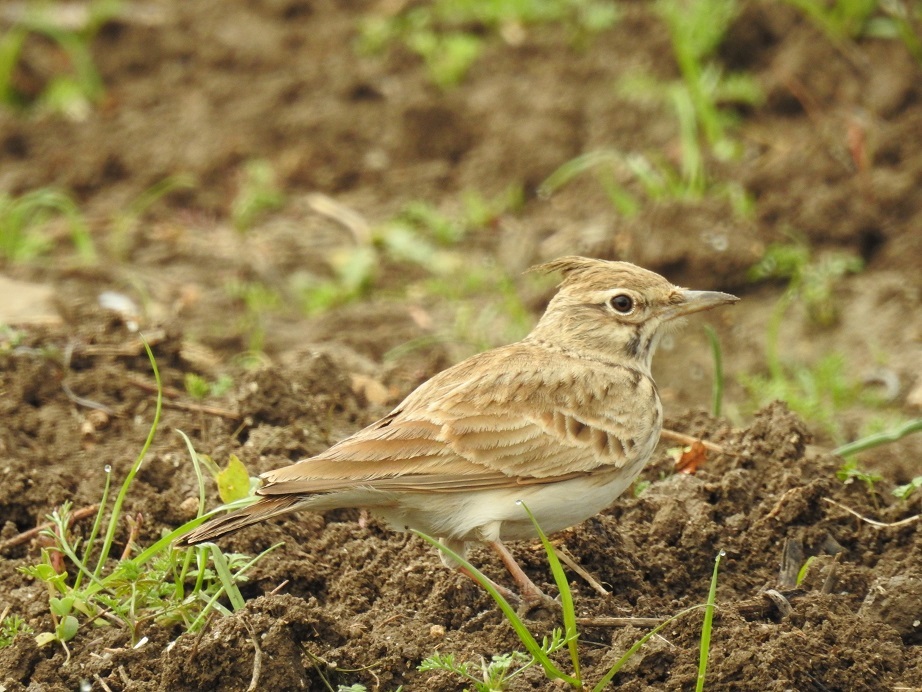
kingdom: Animalia
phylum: Chordata
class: Aves
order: Passeriformes
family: Alaudidae
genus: Galerida
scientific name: Galerida cristata
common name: Crested lark
